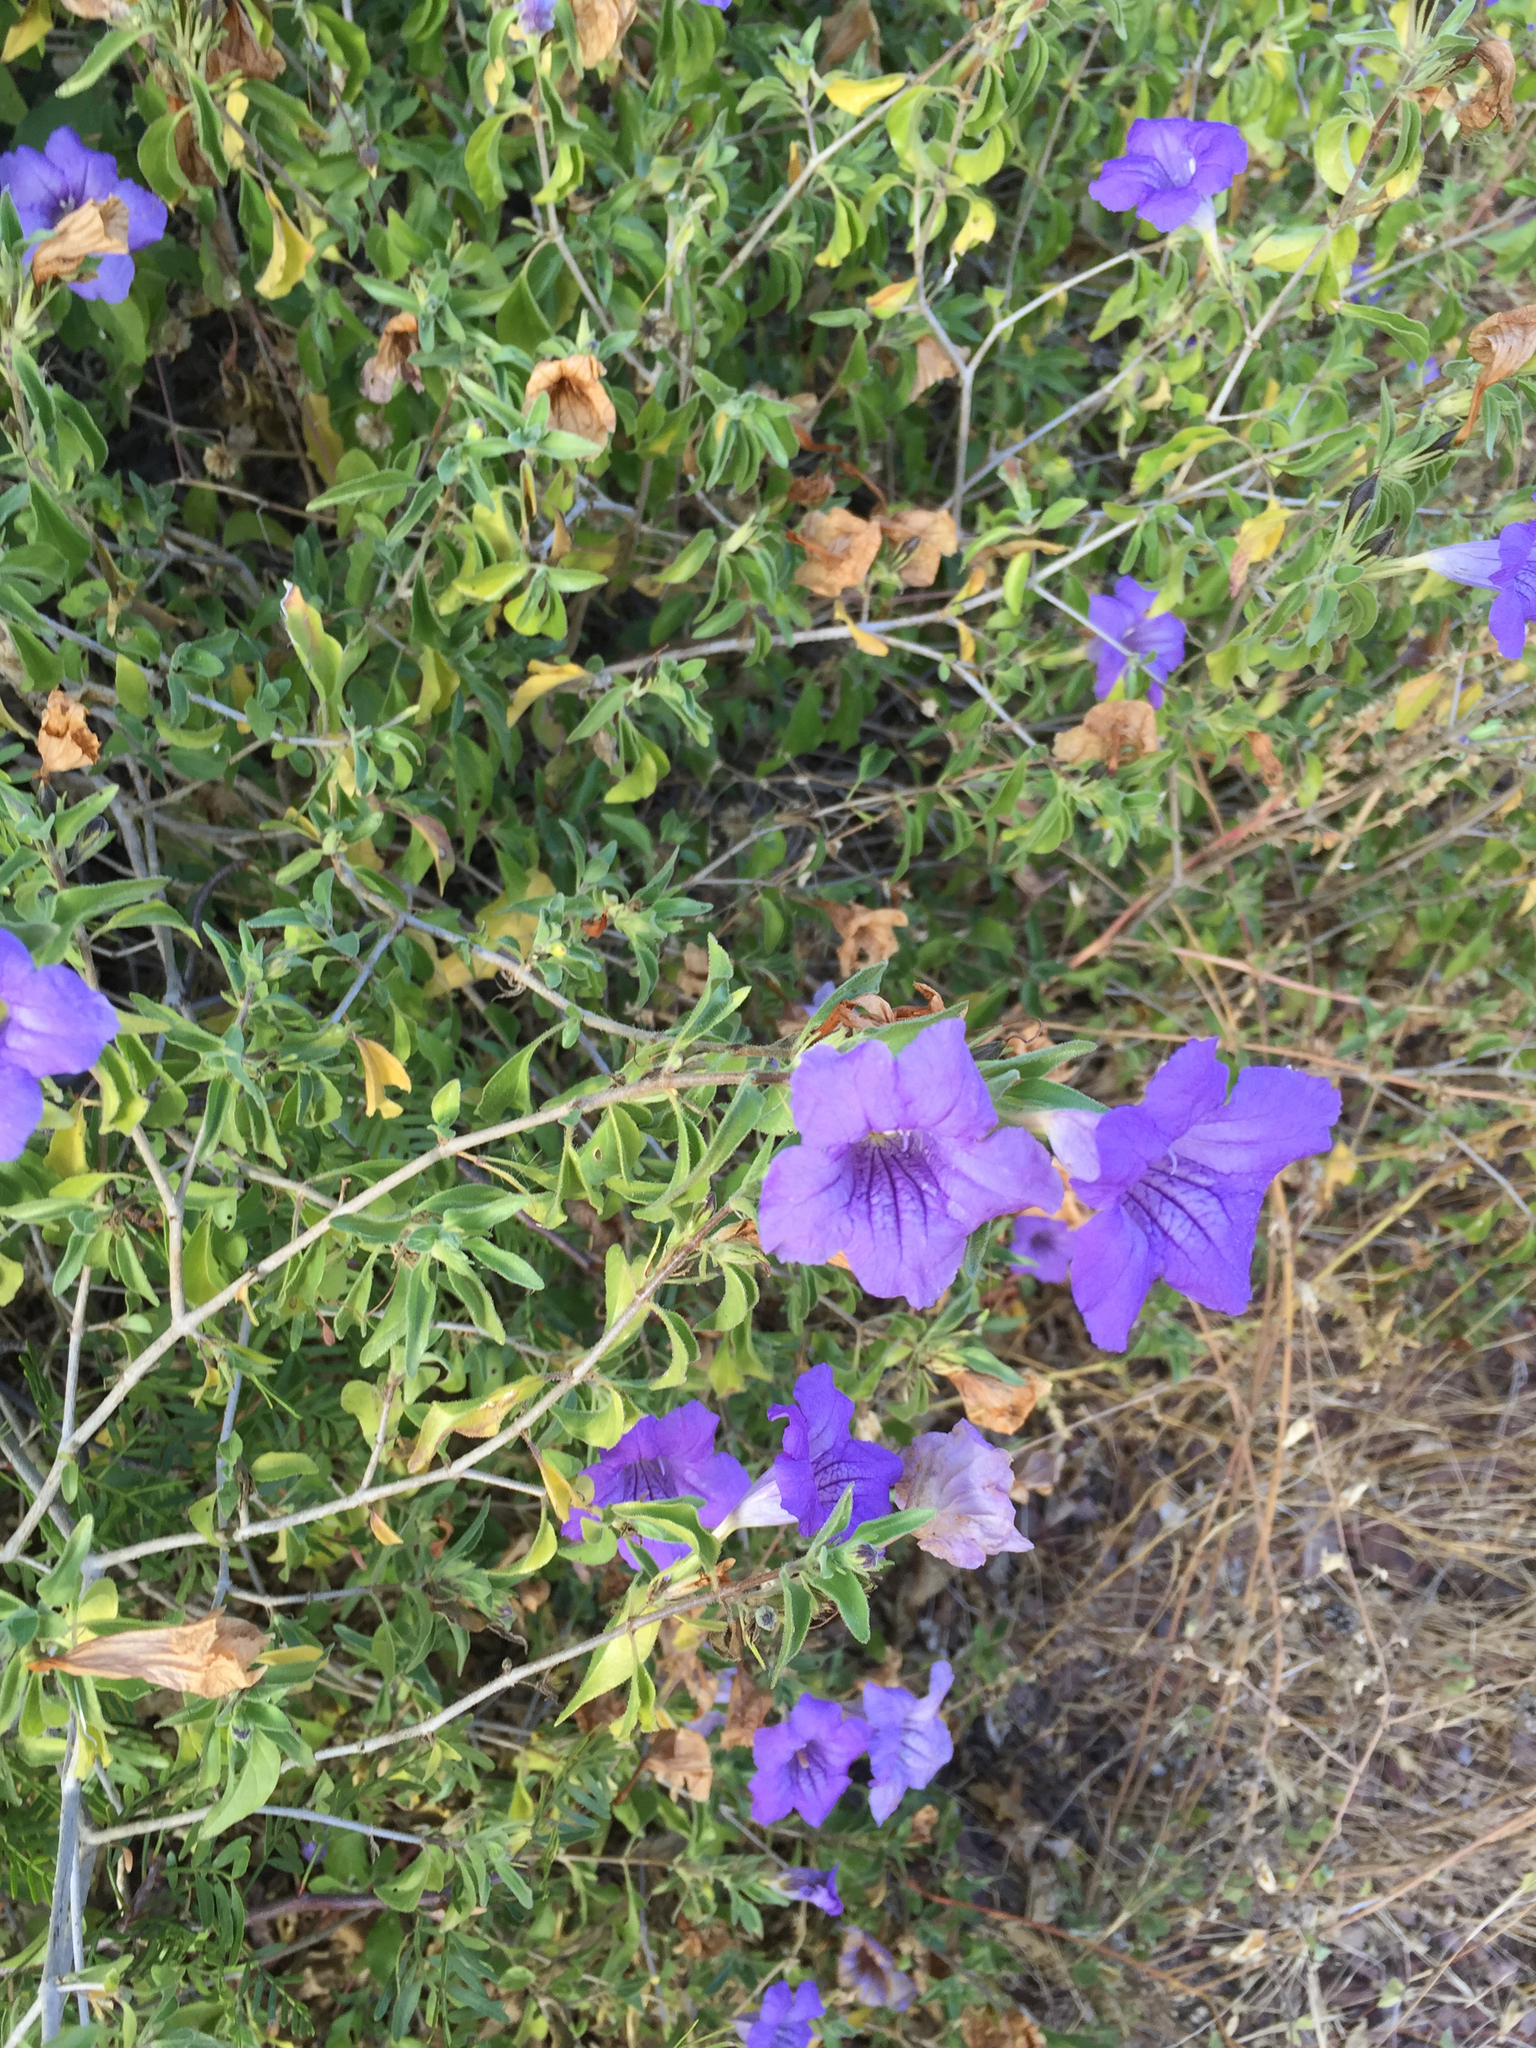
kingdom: Plantae
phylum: Tracheophyta
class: Magnoliopsida
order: Lamiales
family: Acanthaceae
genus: Ruellia
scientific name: Ruellia californica
